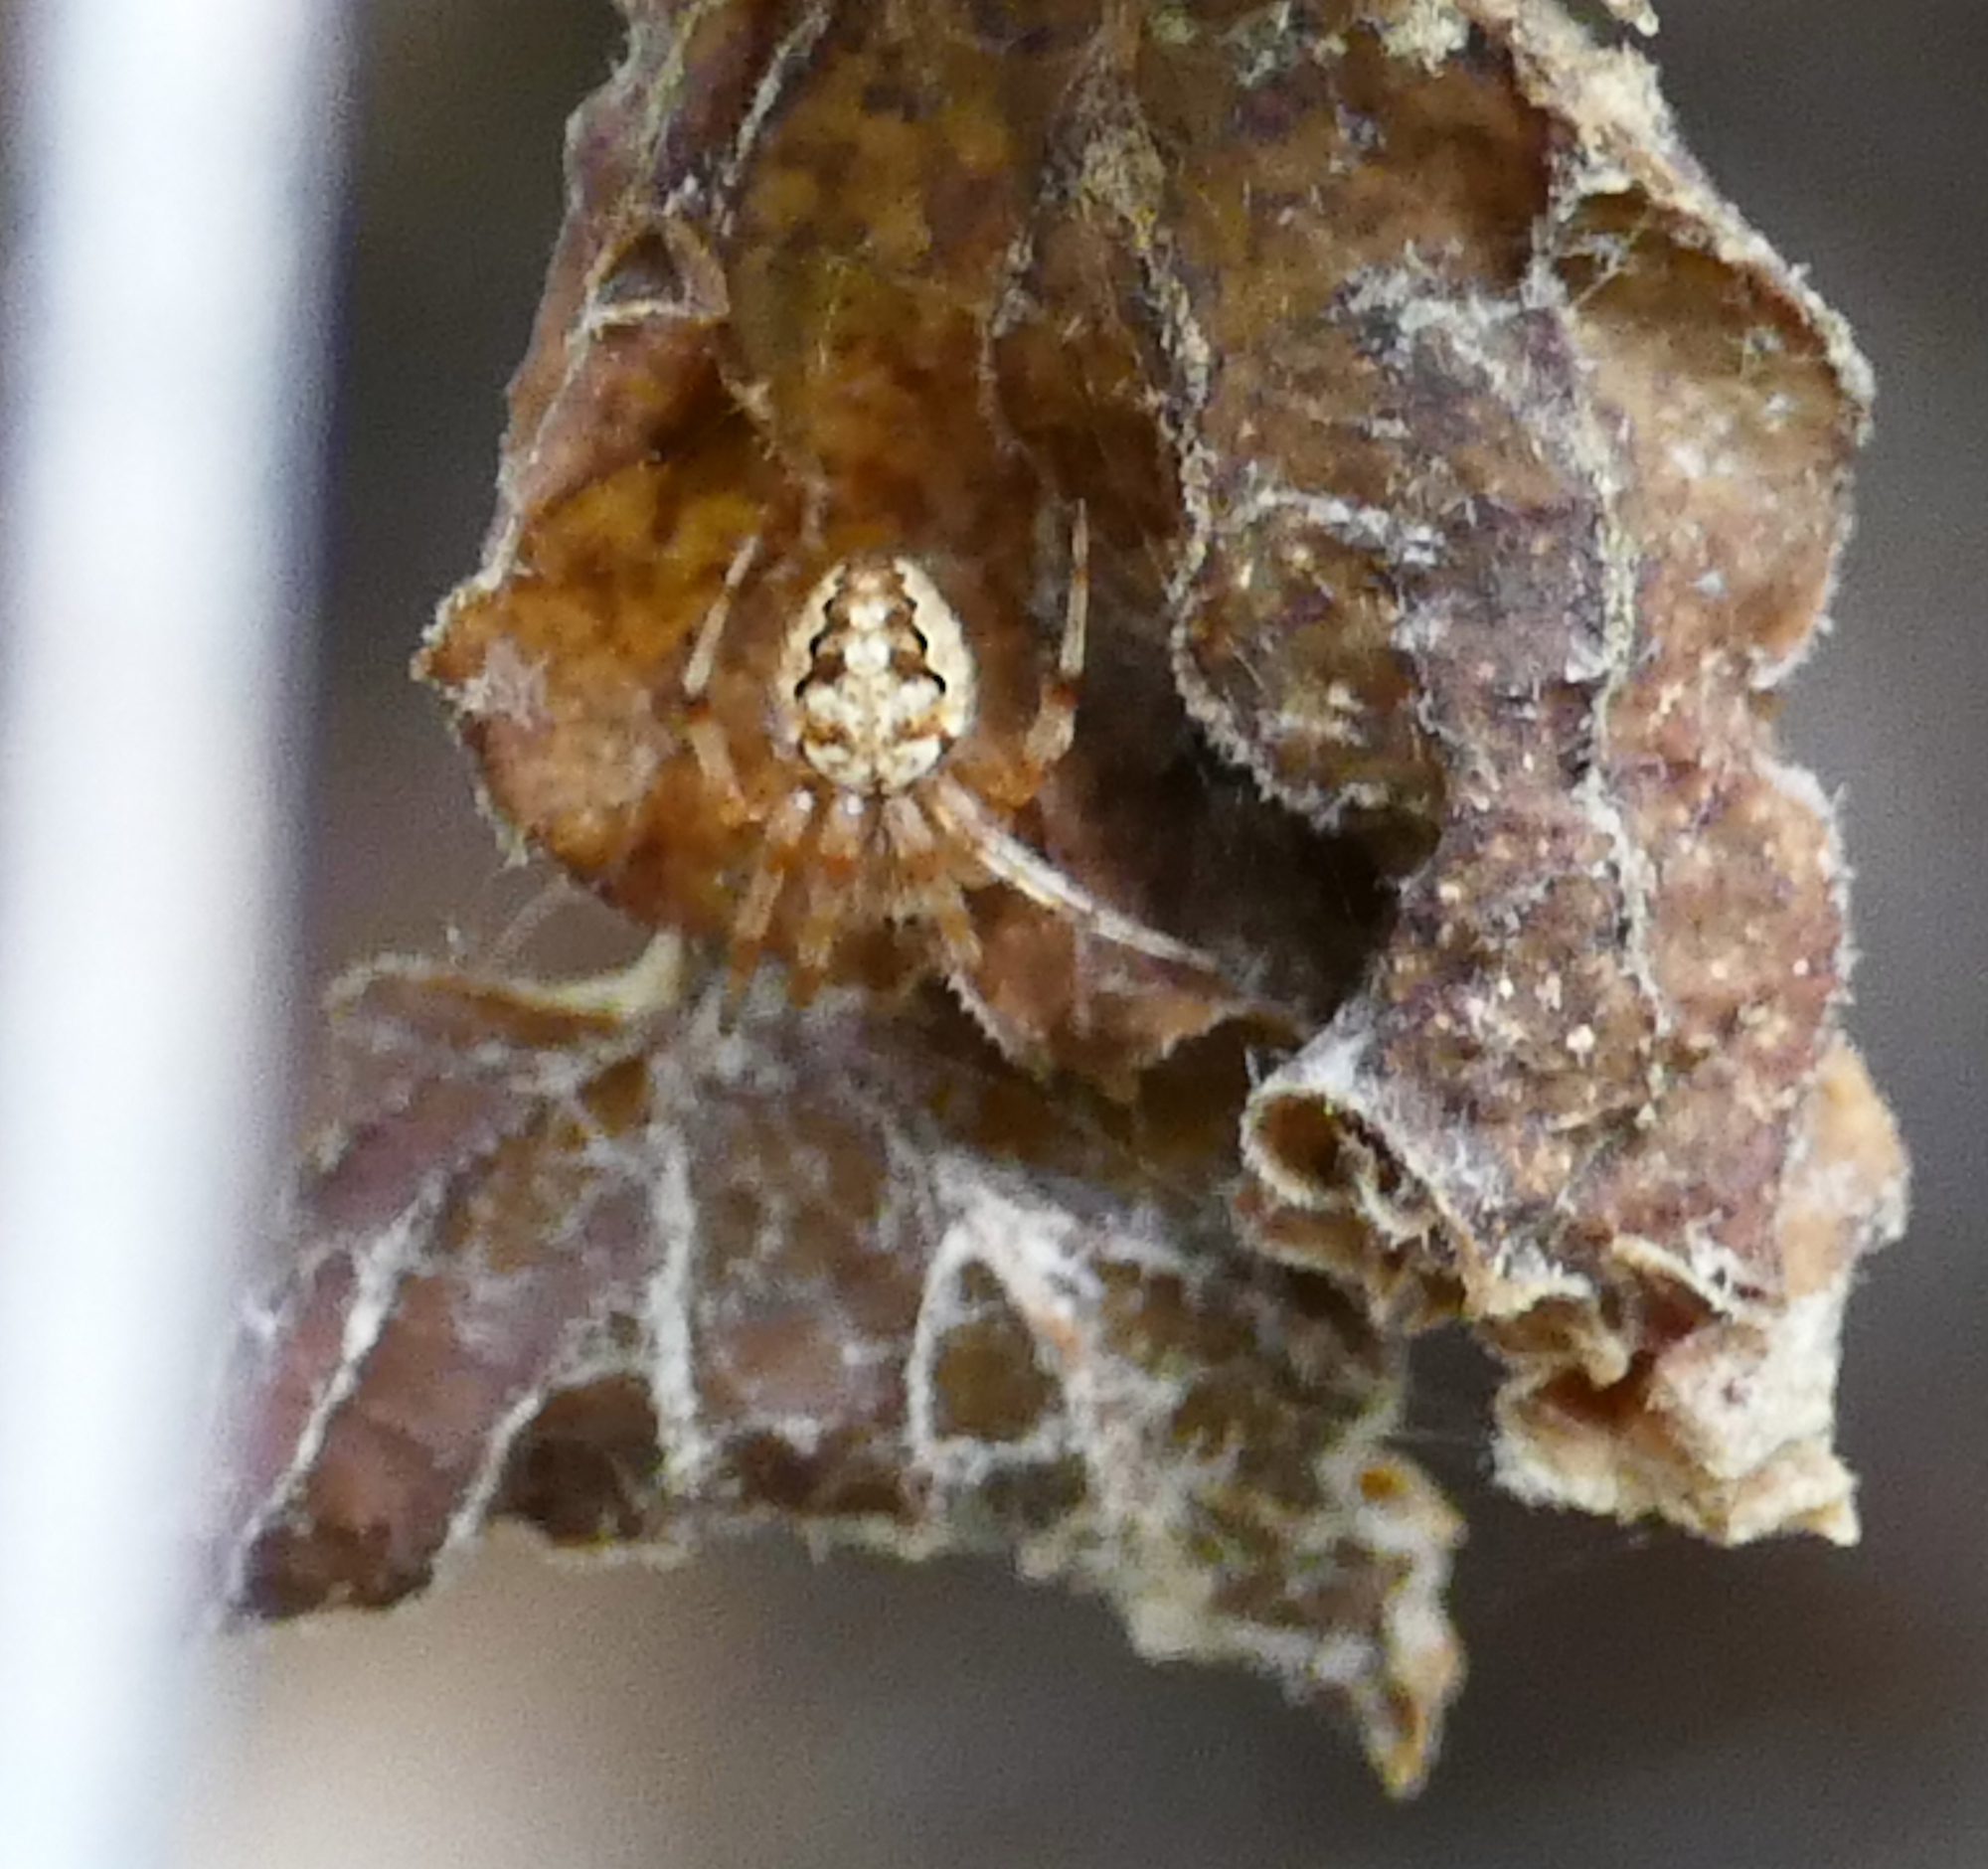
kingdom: Animalia
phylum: Arthropoda
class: Arachnida
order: Araneae
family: Araneidae
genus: Neoscona
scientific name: Neoscona arabesca
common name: Orb weavers
